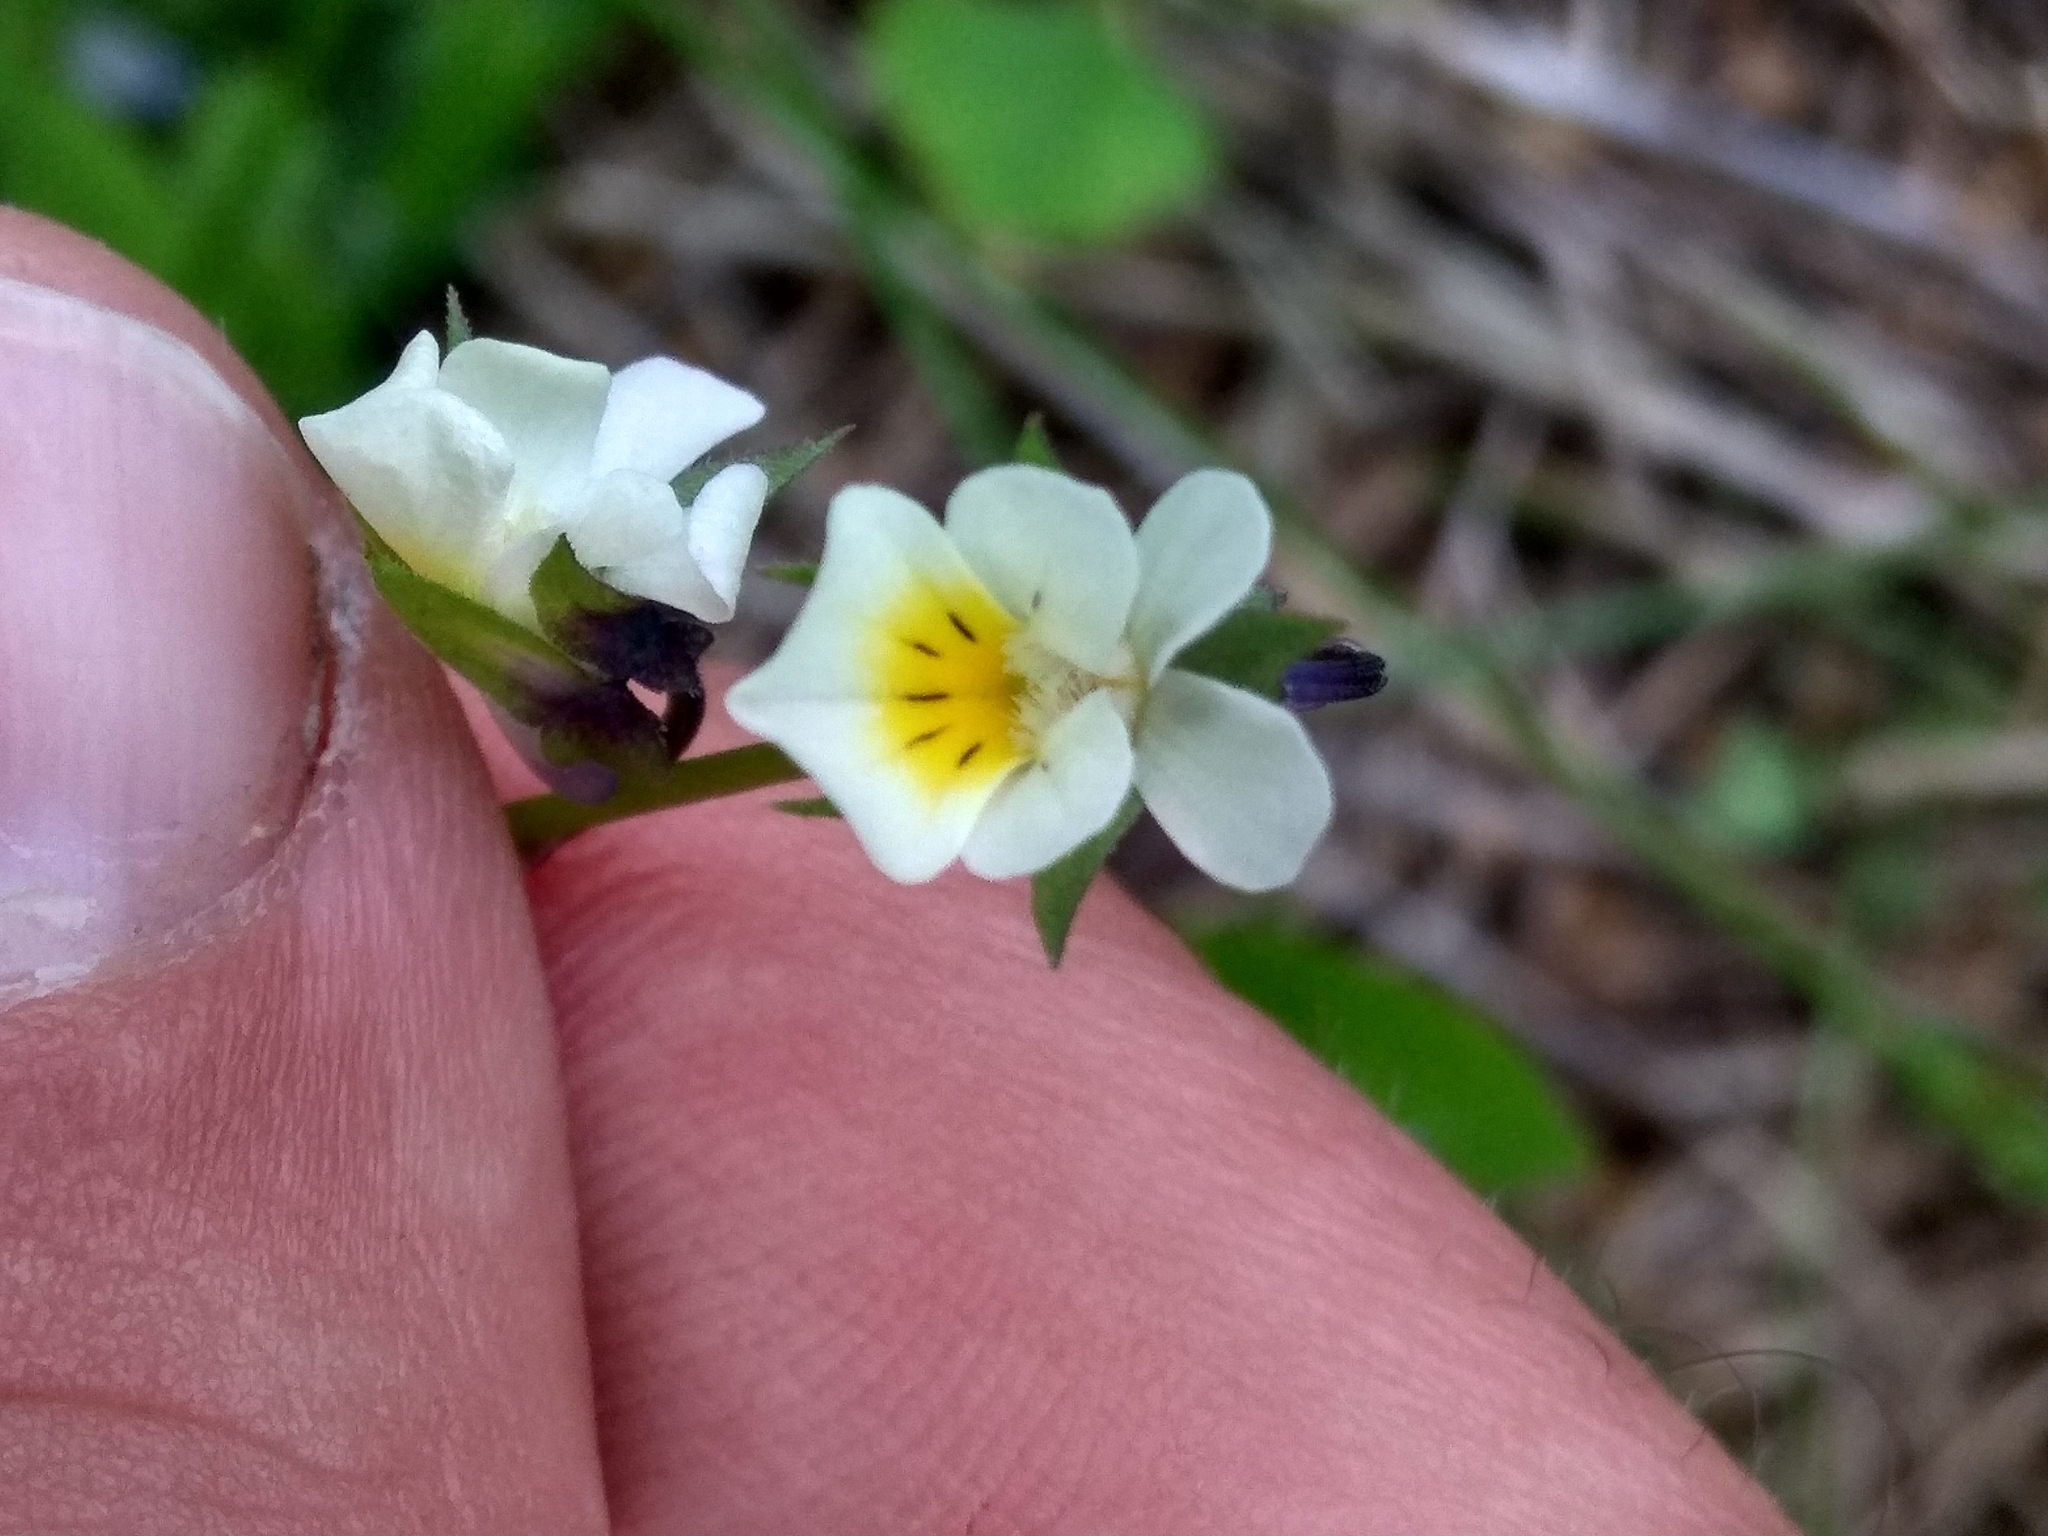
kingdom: Plantae
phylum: Tracheophyta
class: Magnoliopsida
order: Malpighiales
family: Violaceae
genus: Viola
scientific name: Viola arvensis
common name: Field pansy
